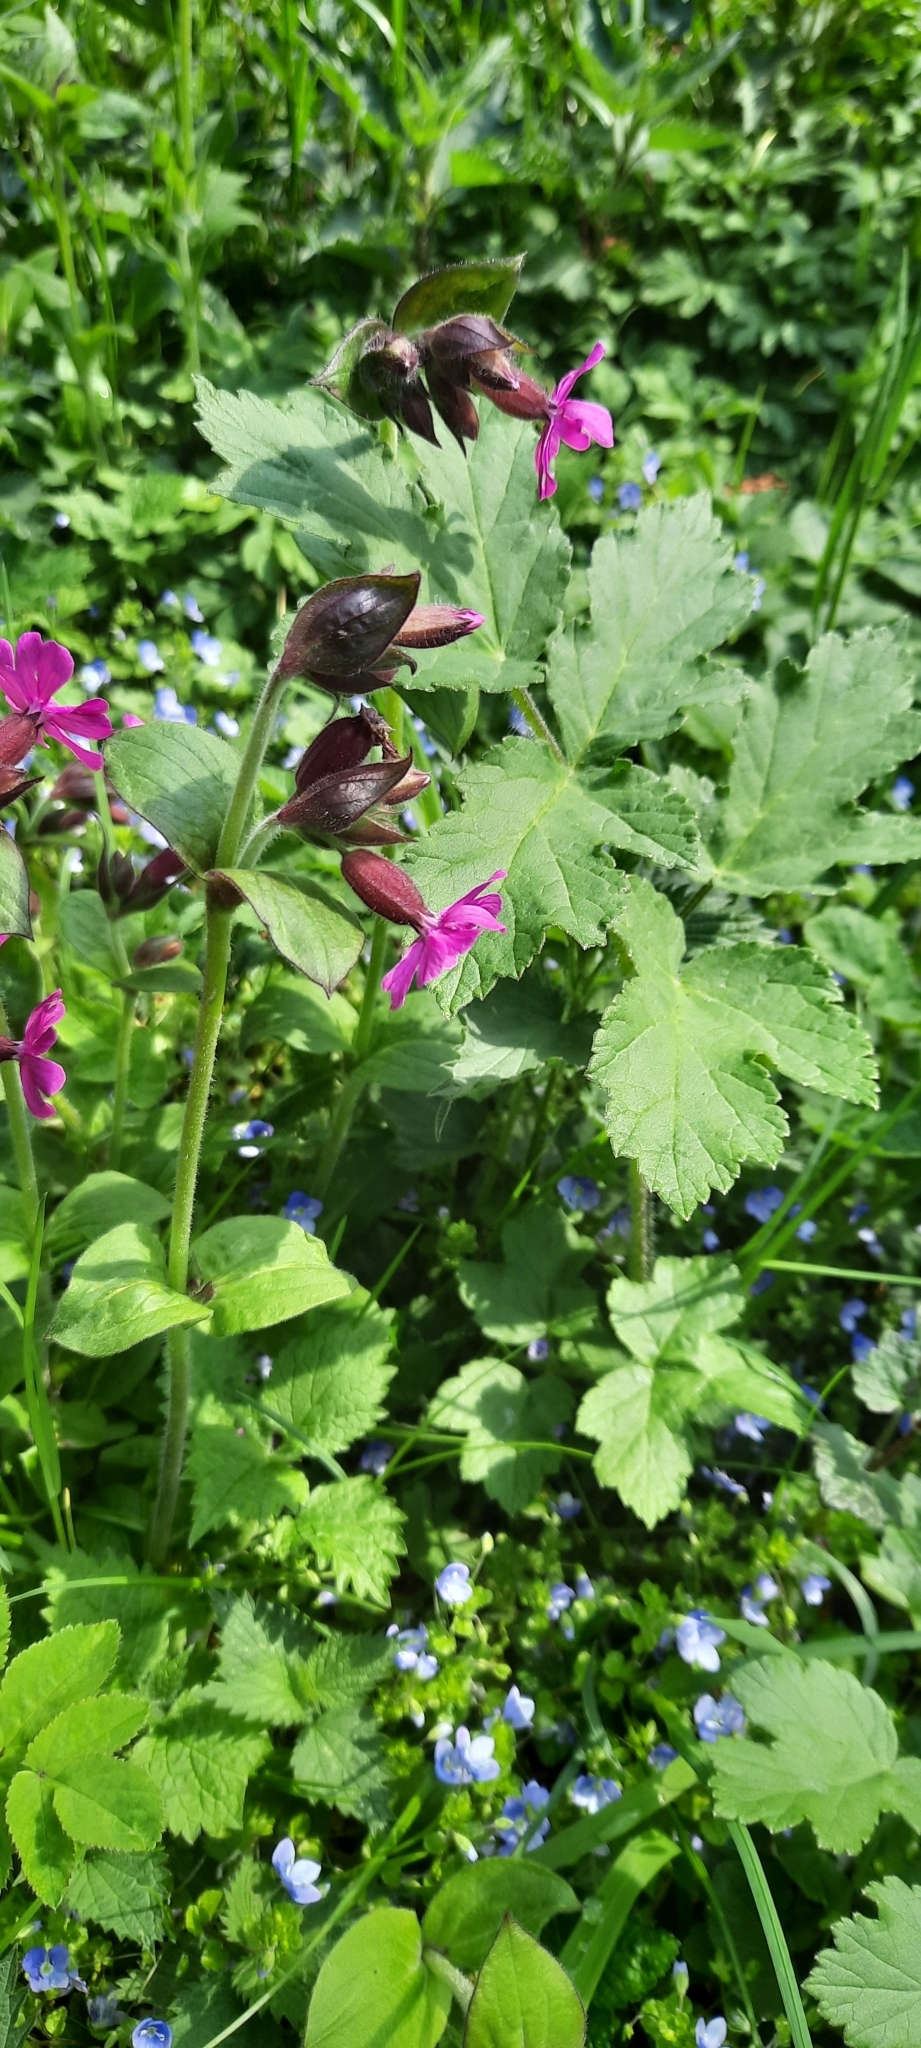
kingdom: Plantae
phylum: Tracheophyta
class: Magnoliopsida
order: Caryophyllales
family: Caryophyllaceae
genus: Silene
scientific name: Silene dioica
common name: Red campion
